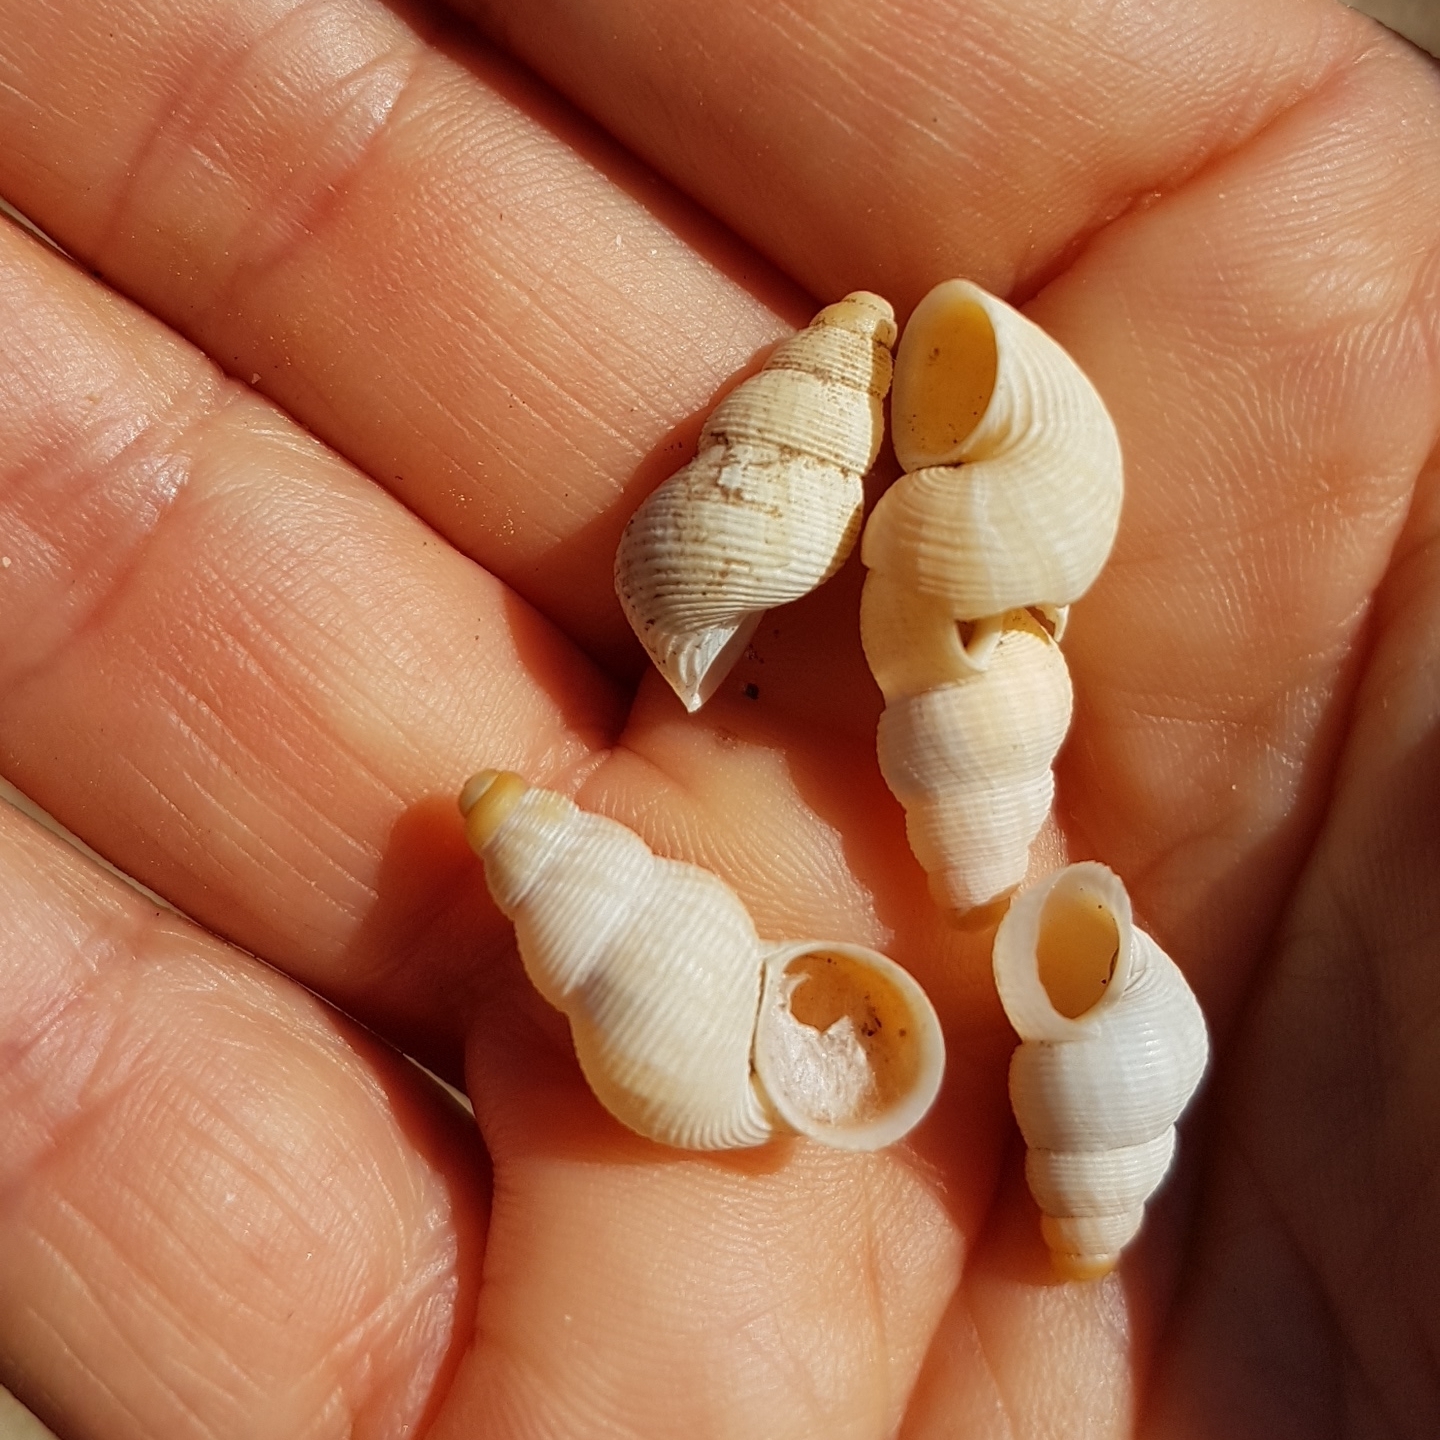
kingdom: Animalia
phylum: Mollusca
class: Gastropoda
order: Littorinimorpha
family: Pomatiidae
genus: Tudorella
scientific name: Tudorella ferruginea
